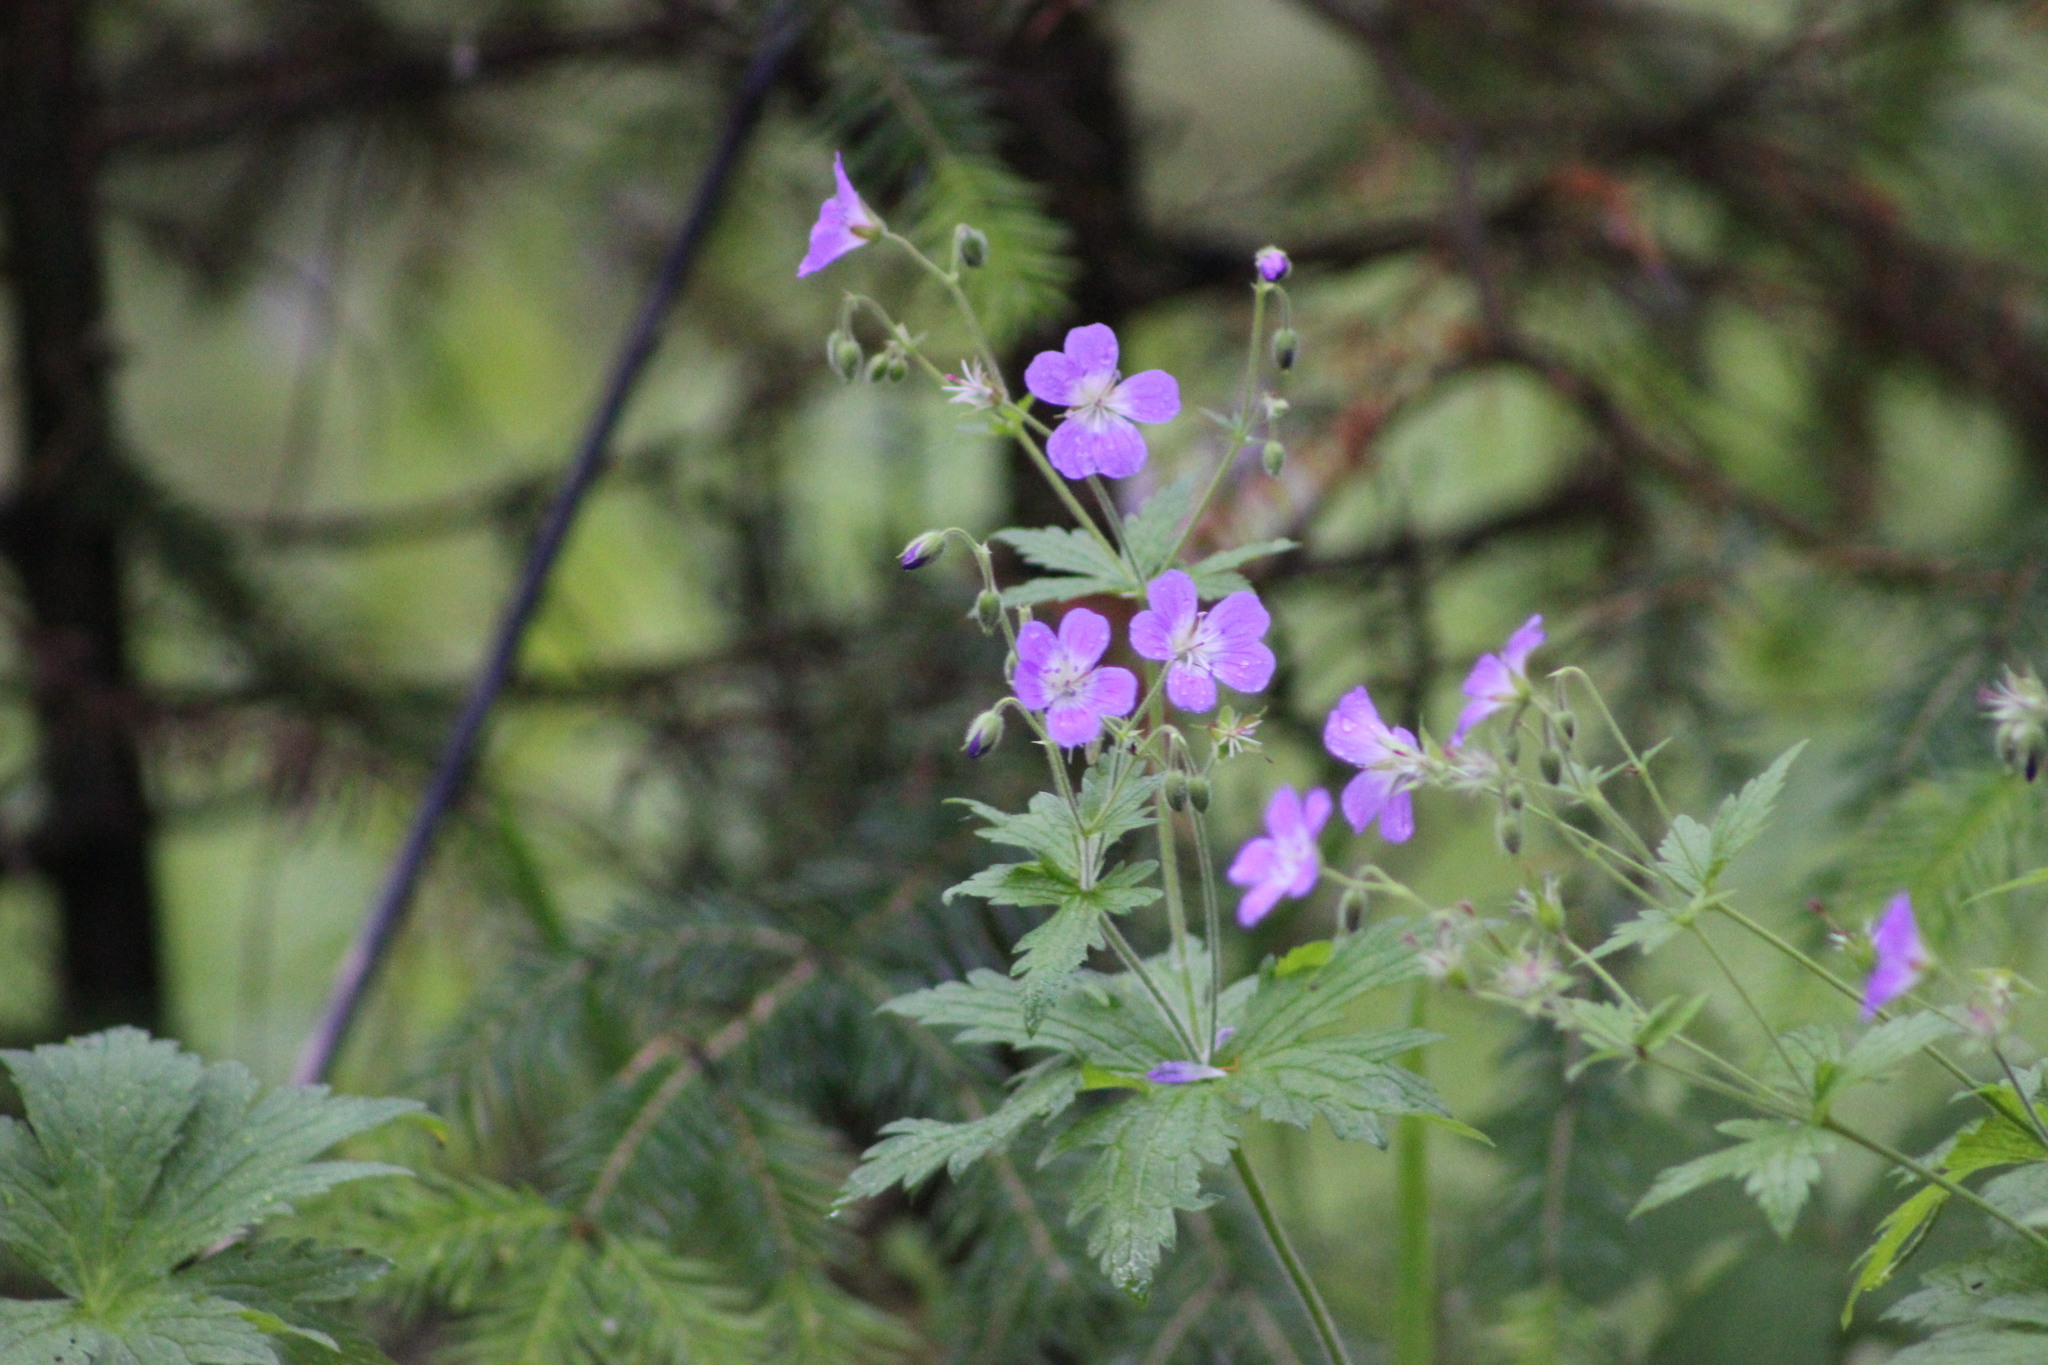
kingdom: Plantae
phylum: Tracheophyta
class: Magnoliopsida
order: Geraniales
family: Geraniaceae
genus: Geranium
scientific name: Geranium sylvaticum
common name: Wood crane's-bill
